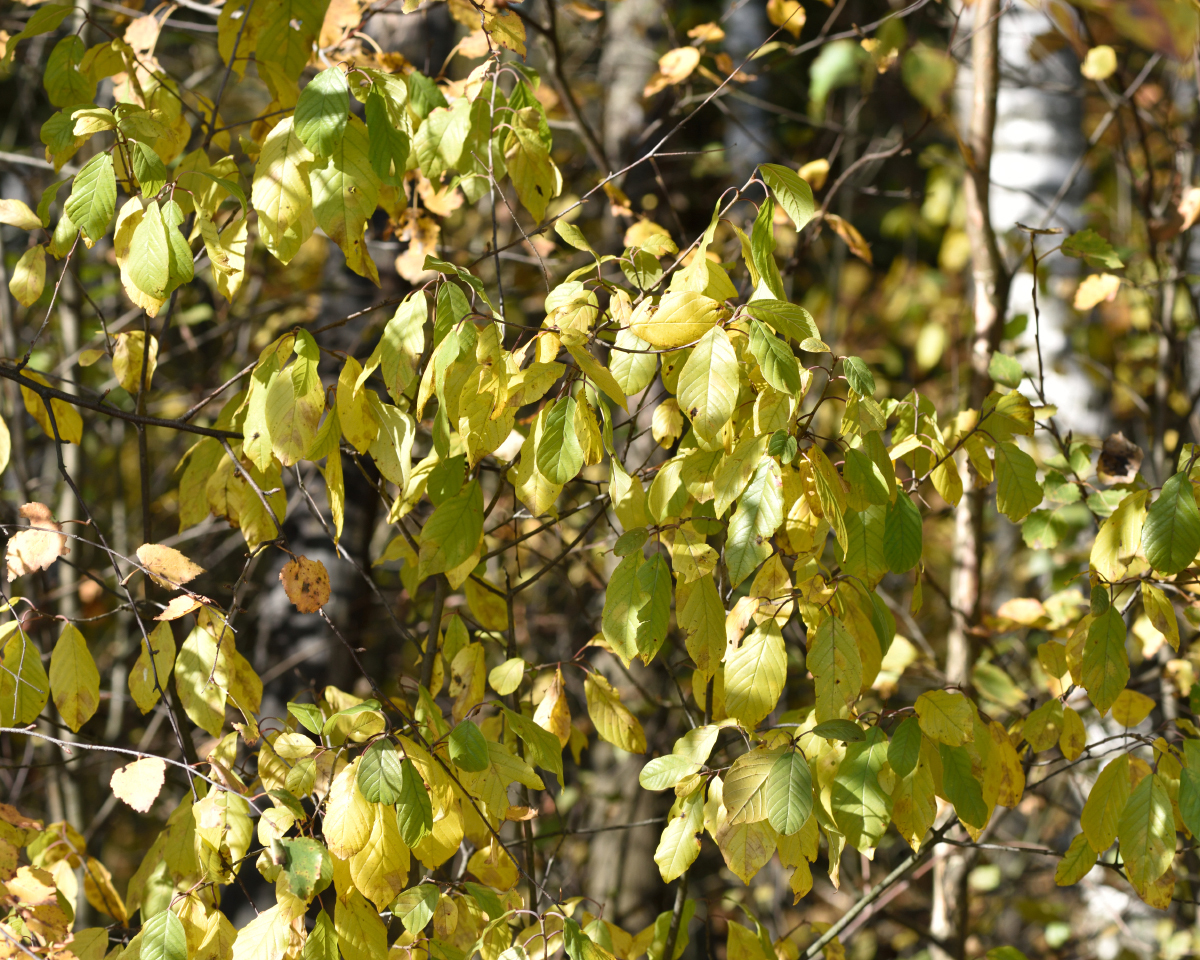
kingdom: Plantae
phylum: Tracheophyta
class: Magnoliopsida
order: Rosales
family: Rhamnaceae
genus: Frangula
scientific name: Frangula alnus
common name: Alder buckthorn
